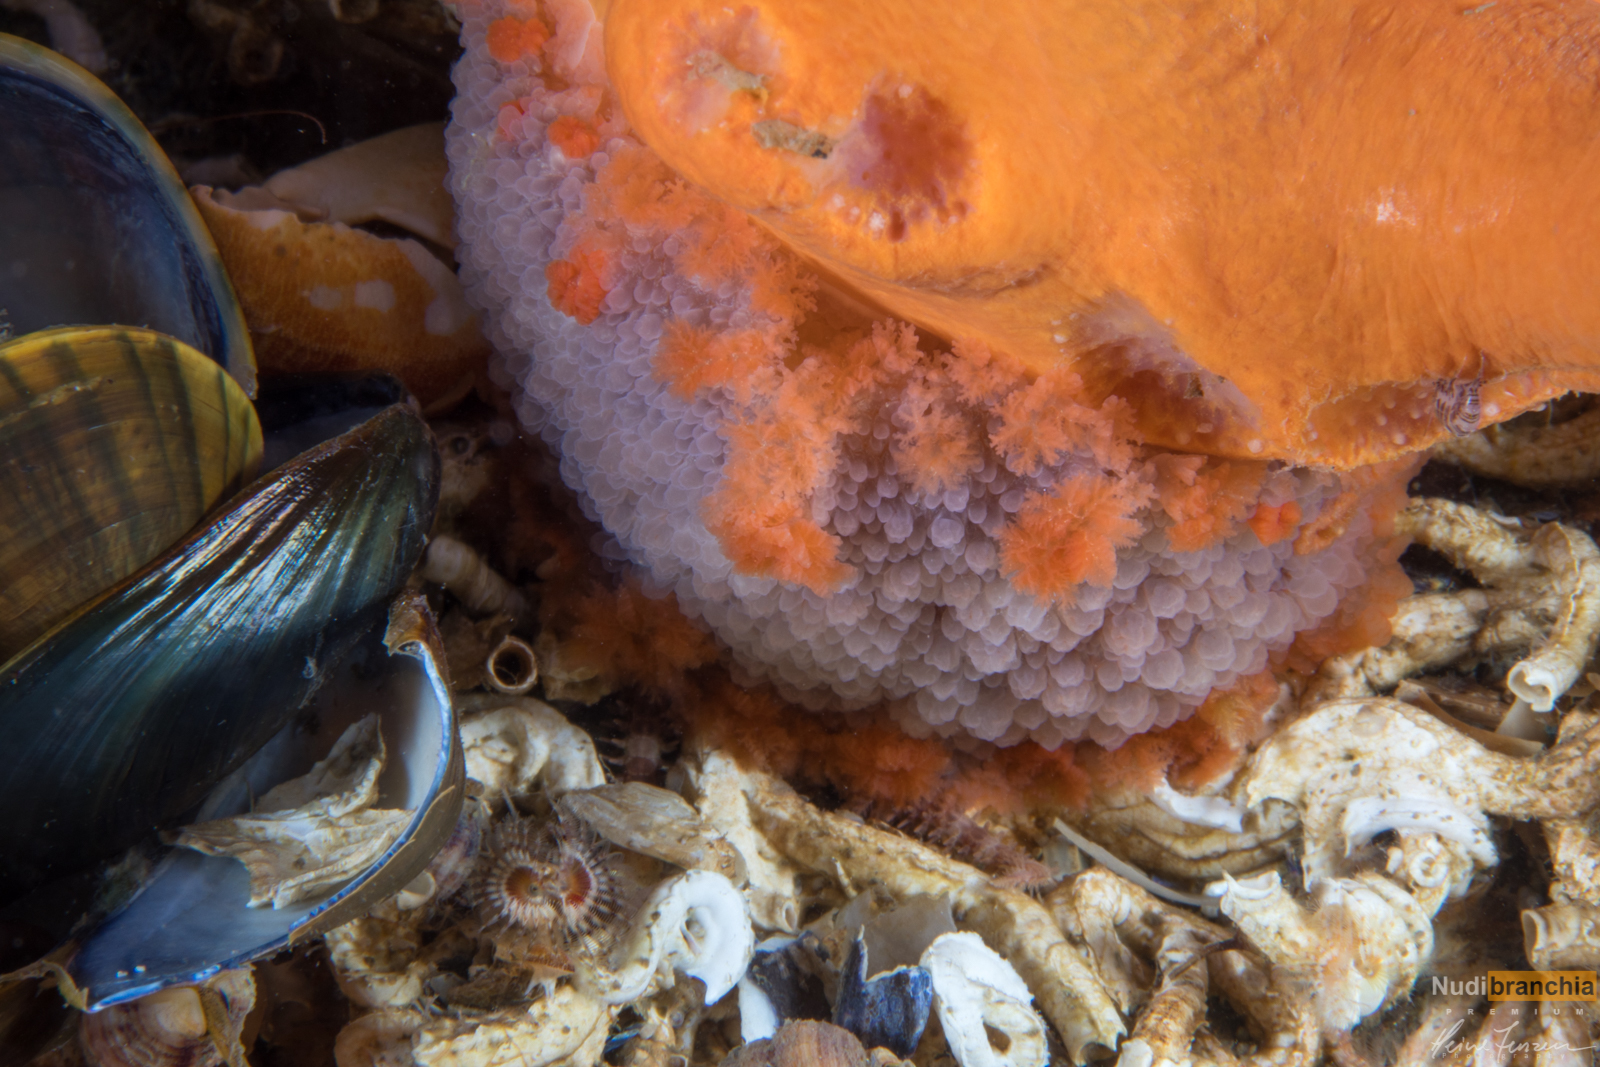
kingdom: Animalia
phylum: Mollusca
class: Gastropoda
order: Nudibranchia
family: Tritoniidae
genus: Tritonia
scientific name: Tritonia hombergii
